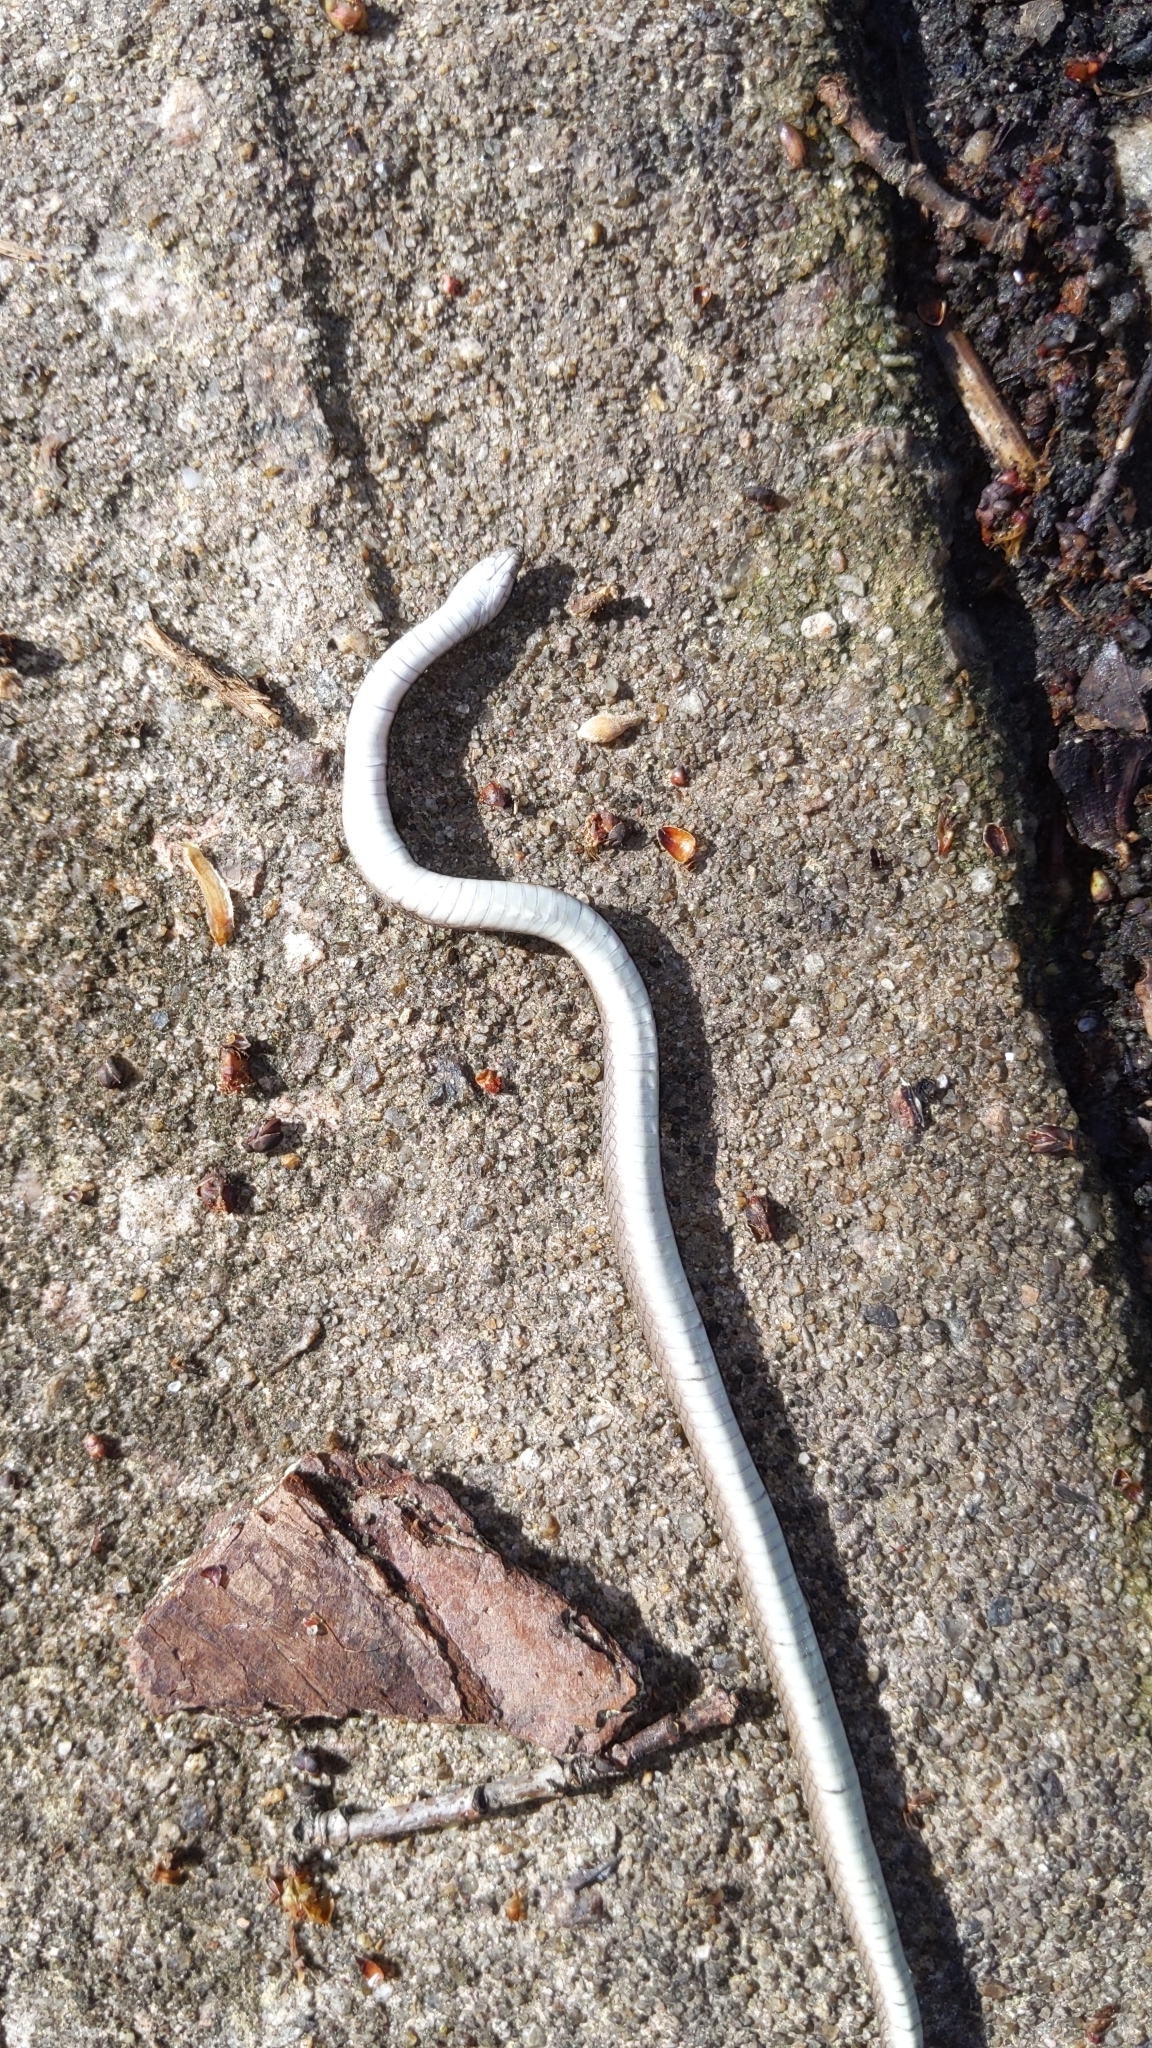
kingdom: Animalia
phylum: Chordata
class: Squamata
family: Colubridae
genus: Haldea
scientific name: Haldea striatula
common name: Rough earth snake
